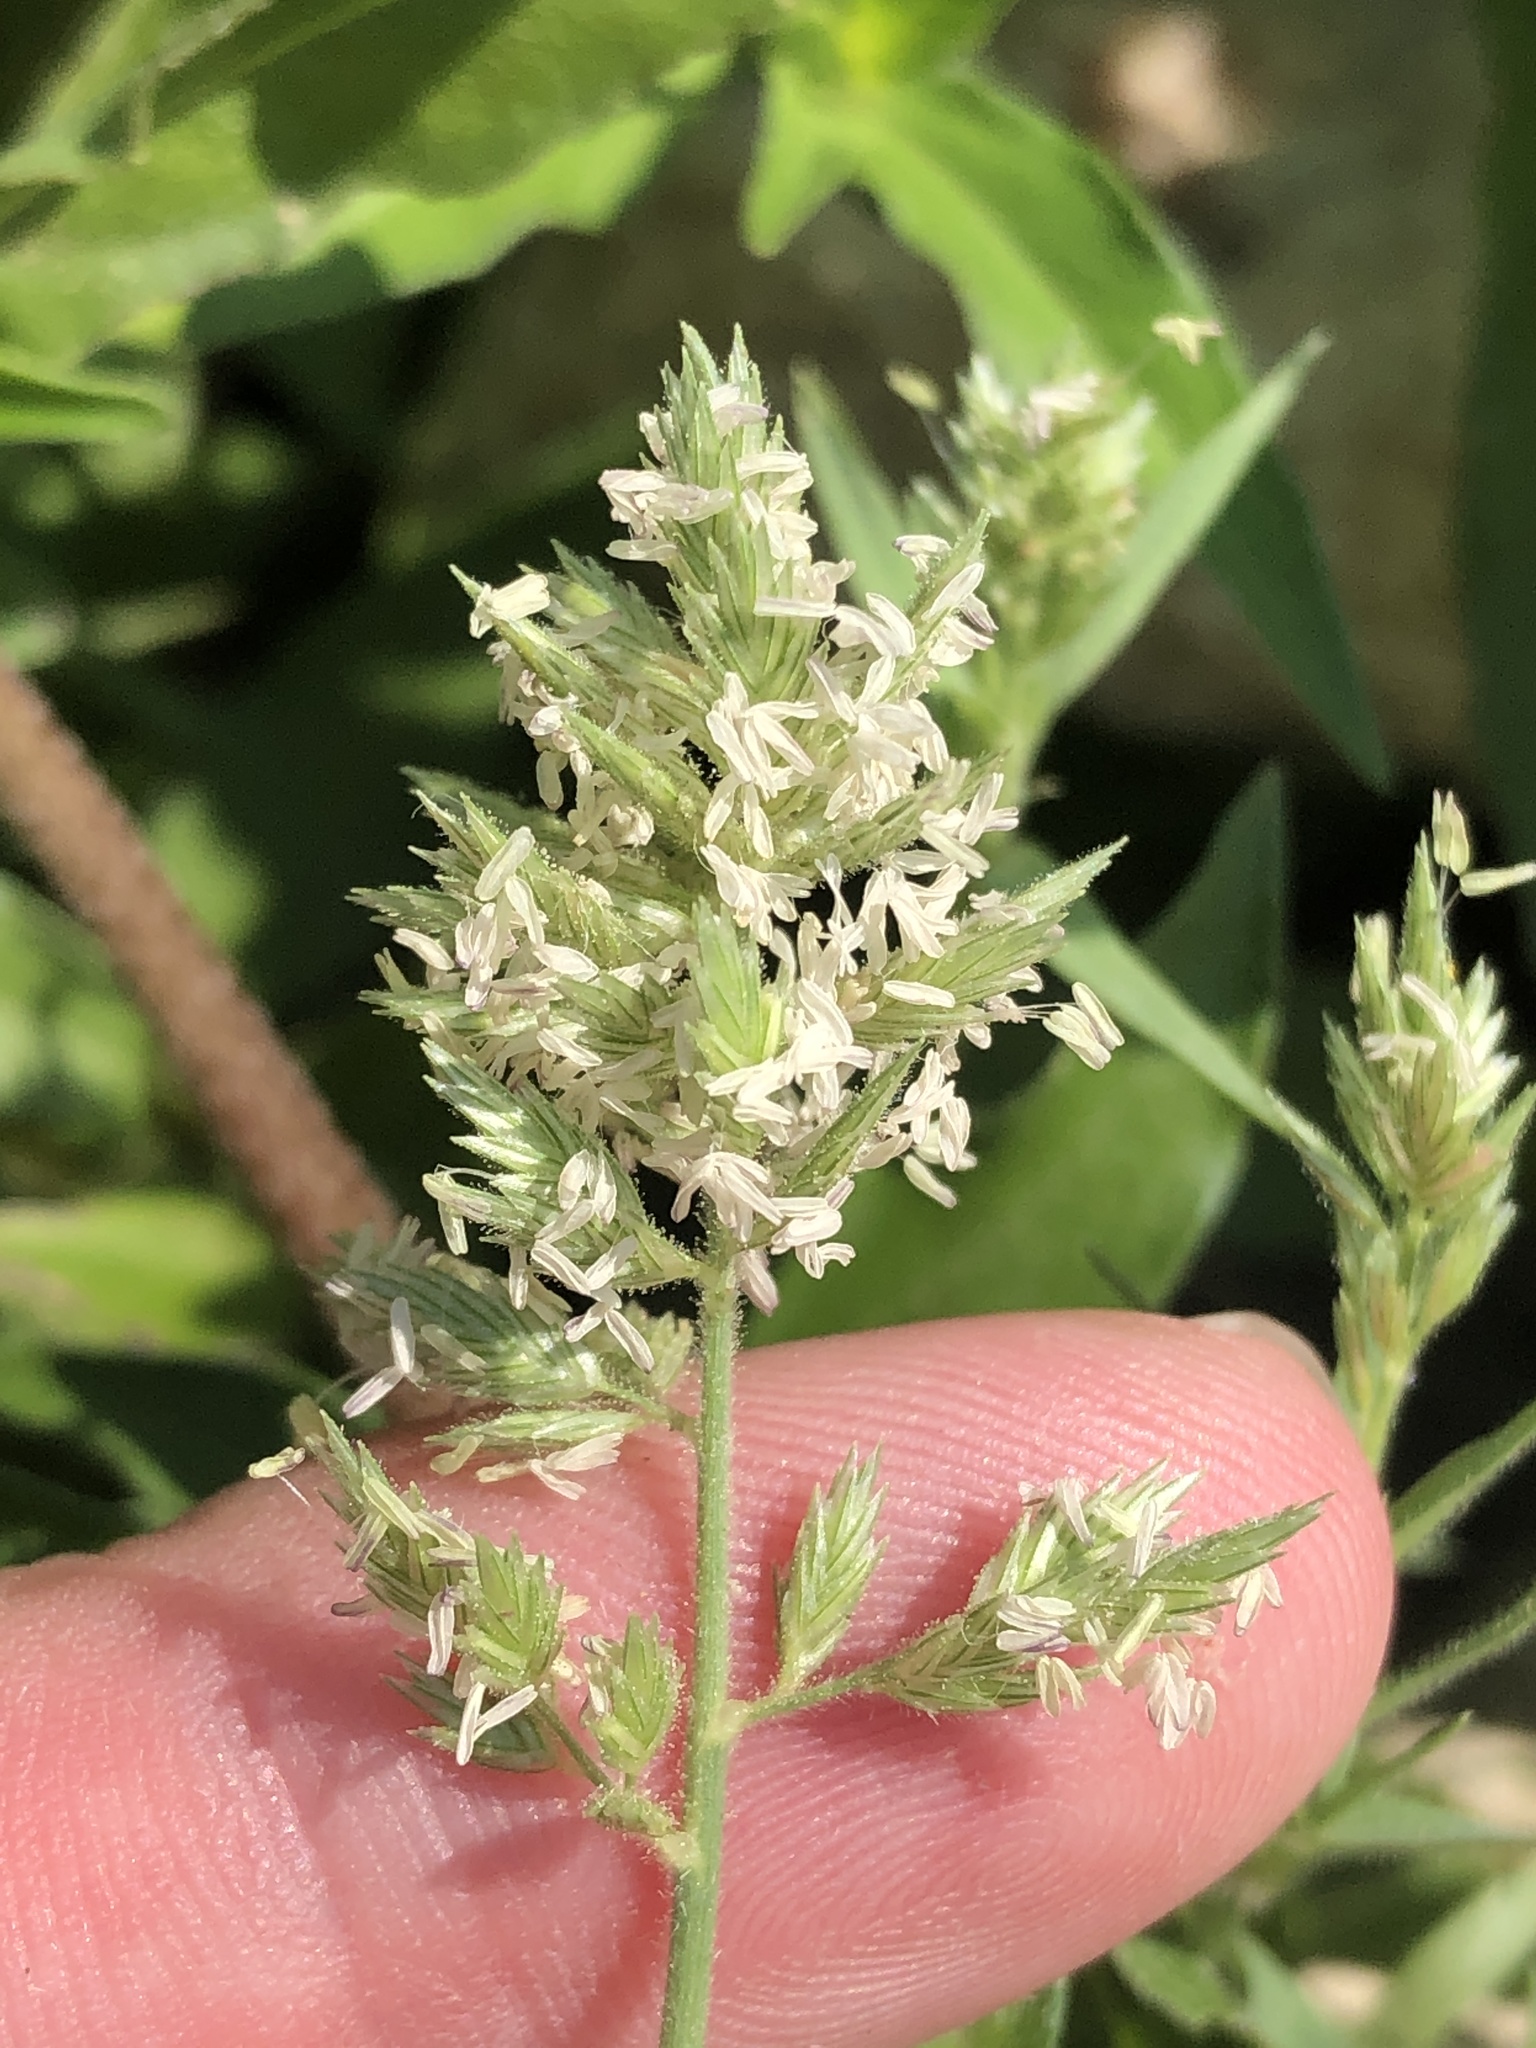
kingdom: Plantae
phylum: Tracheophyta
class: Liliopsida
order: Poales
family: Poaceae
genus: Eragrostis
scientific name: Eragrostis reptans
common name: Creeping love grass
